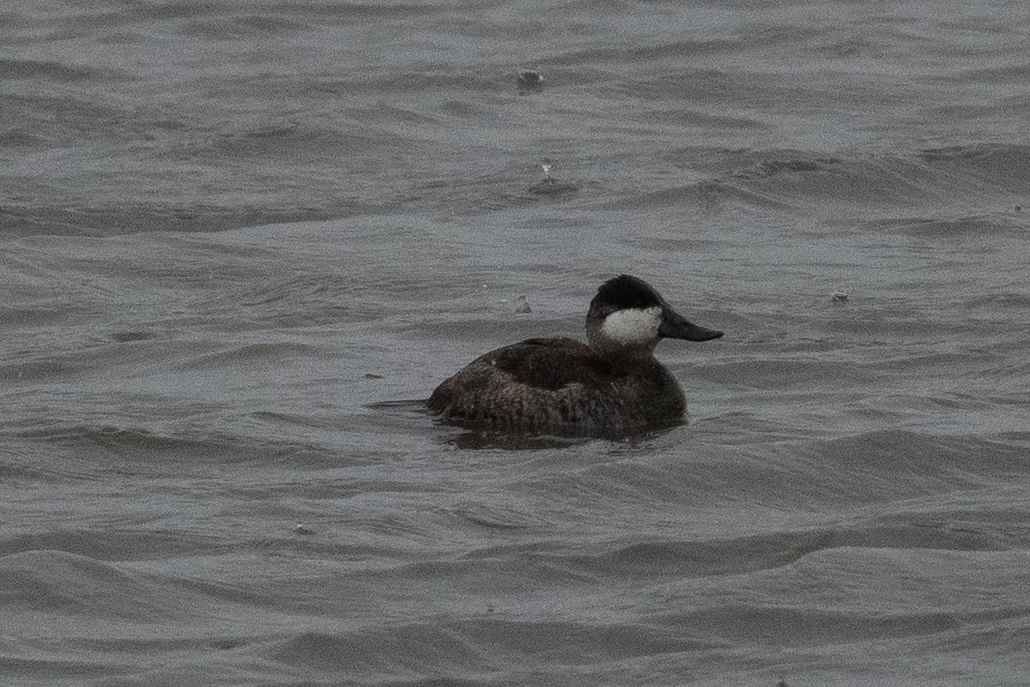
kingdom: Animalia
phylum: Chordata
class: Aves
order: Anseriformes
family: Anatidae
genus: Oxyura
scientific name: Oxyura jamaicensis
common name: Ruddy duck
